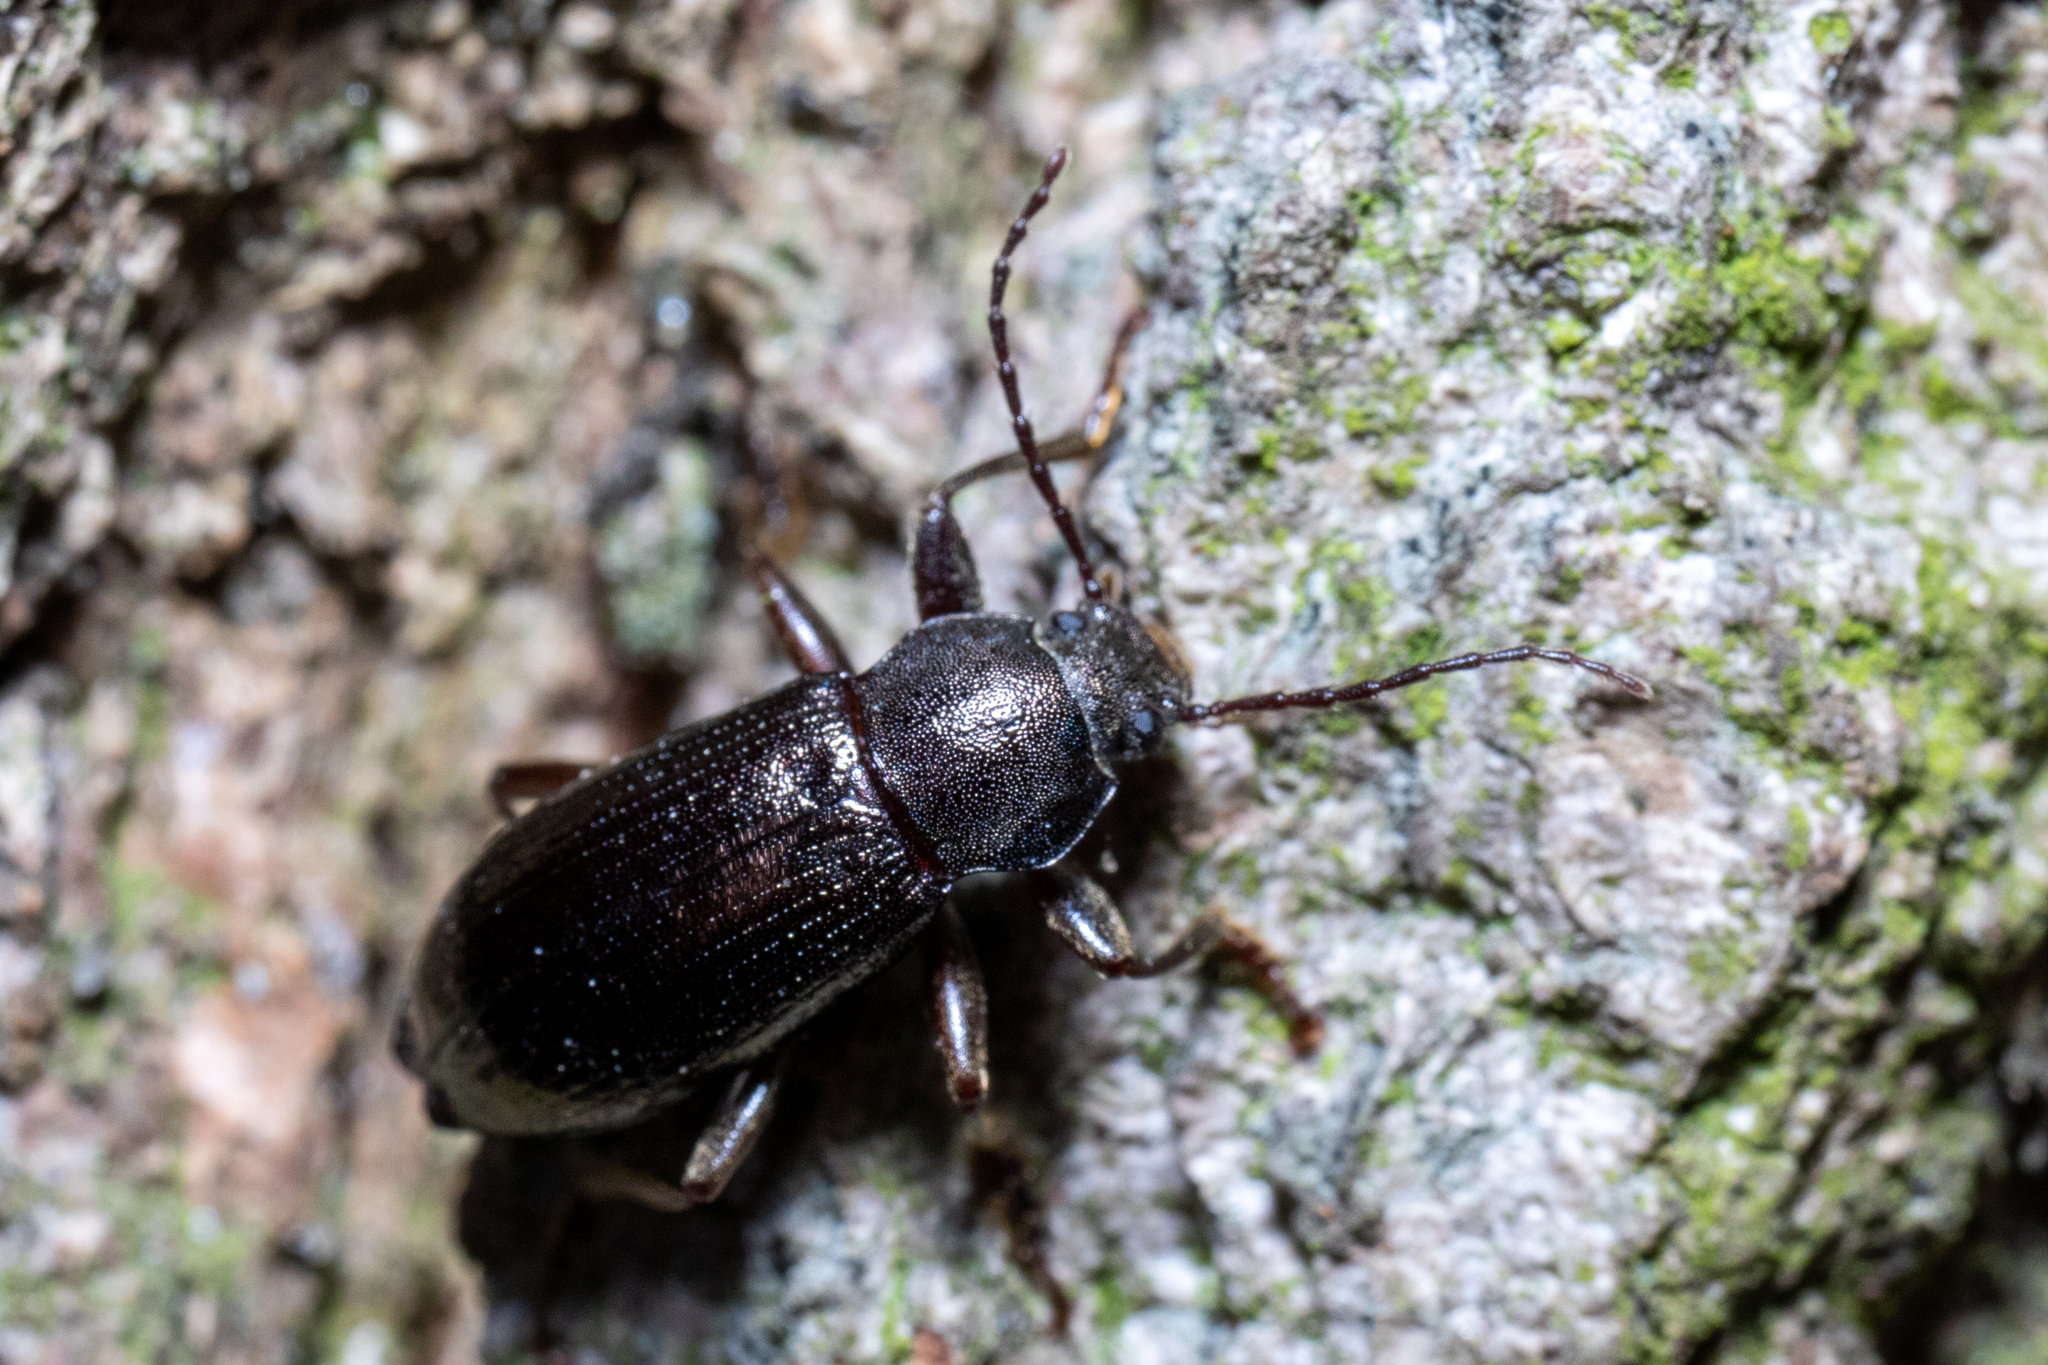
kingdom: Animalia
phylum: Arthropoda
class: Insecta
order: Coleoptera
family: Tenebrionidae
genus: Stenomax
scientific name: Stenomax aeneus
